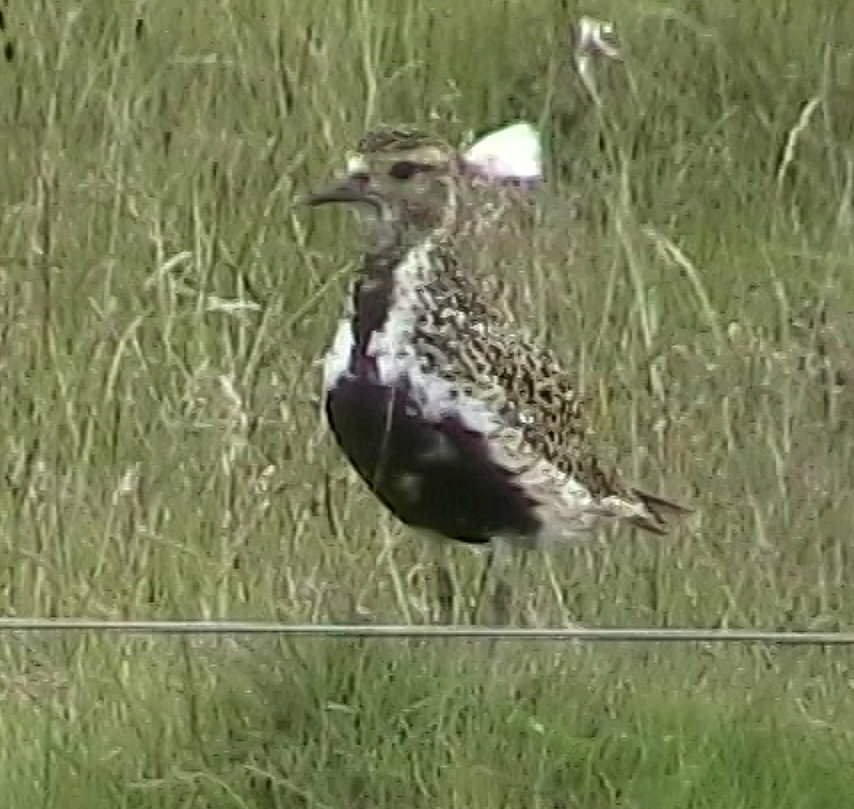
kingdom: Animalia
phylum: Chordata
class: Aves
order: Charadriiformes
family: Charadriidae
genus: Pluvialis
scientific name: Pluvialis apricaria
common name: European golden plover
